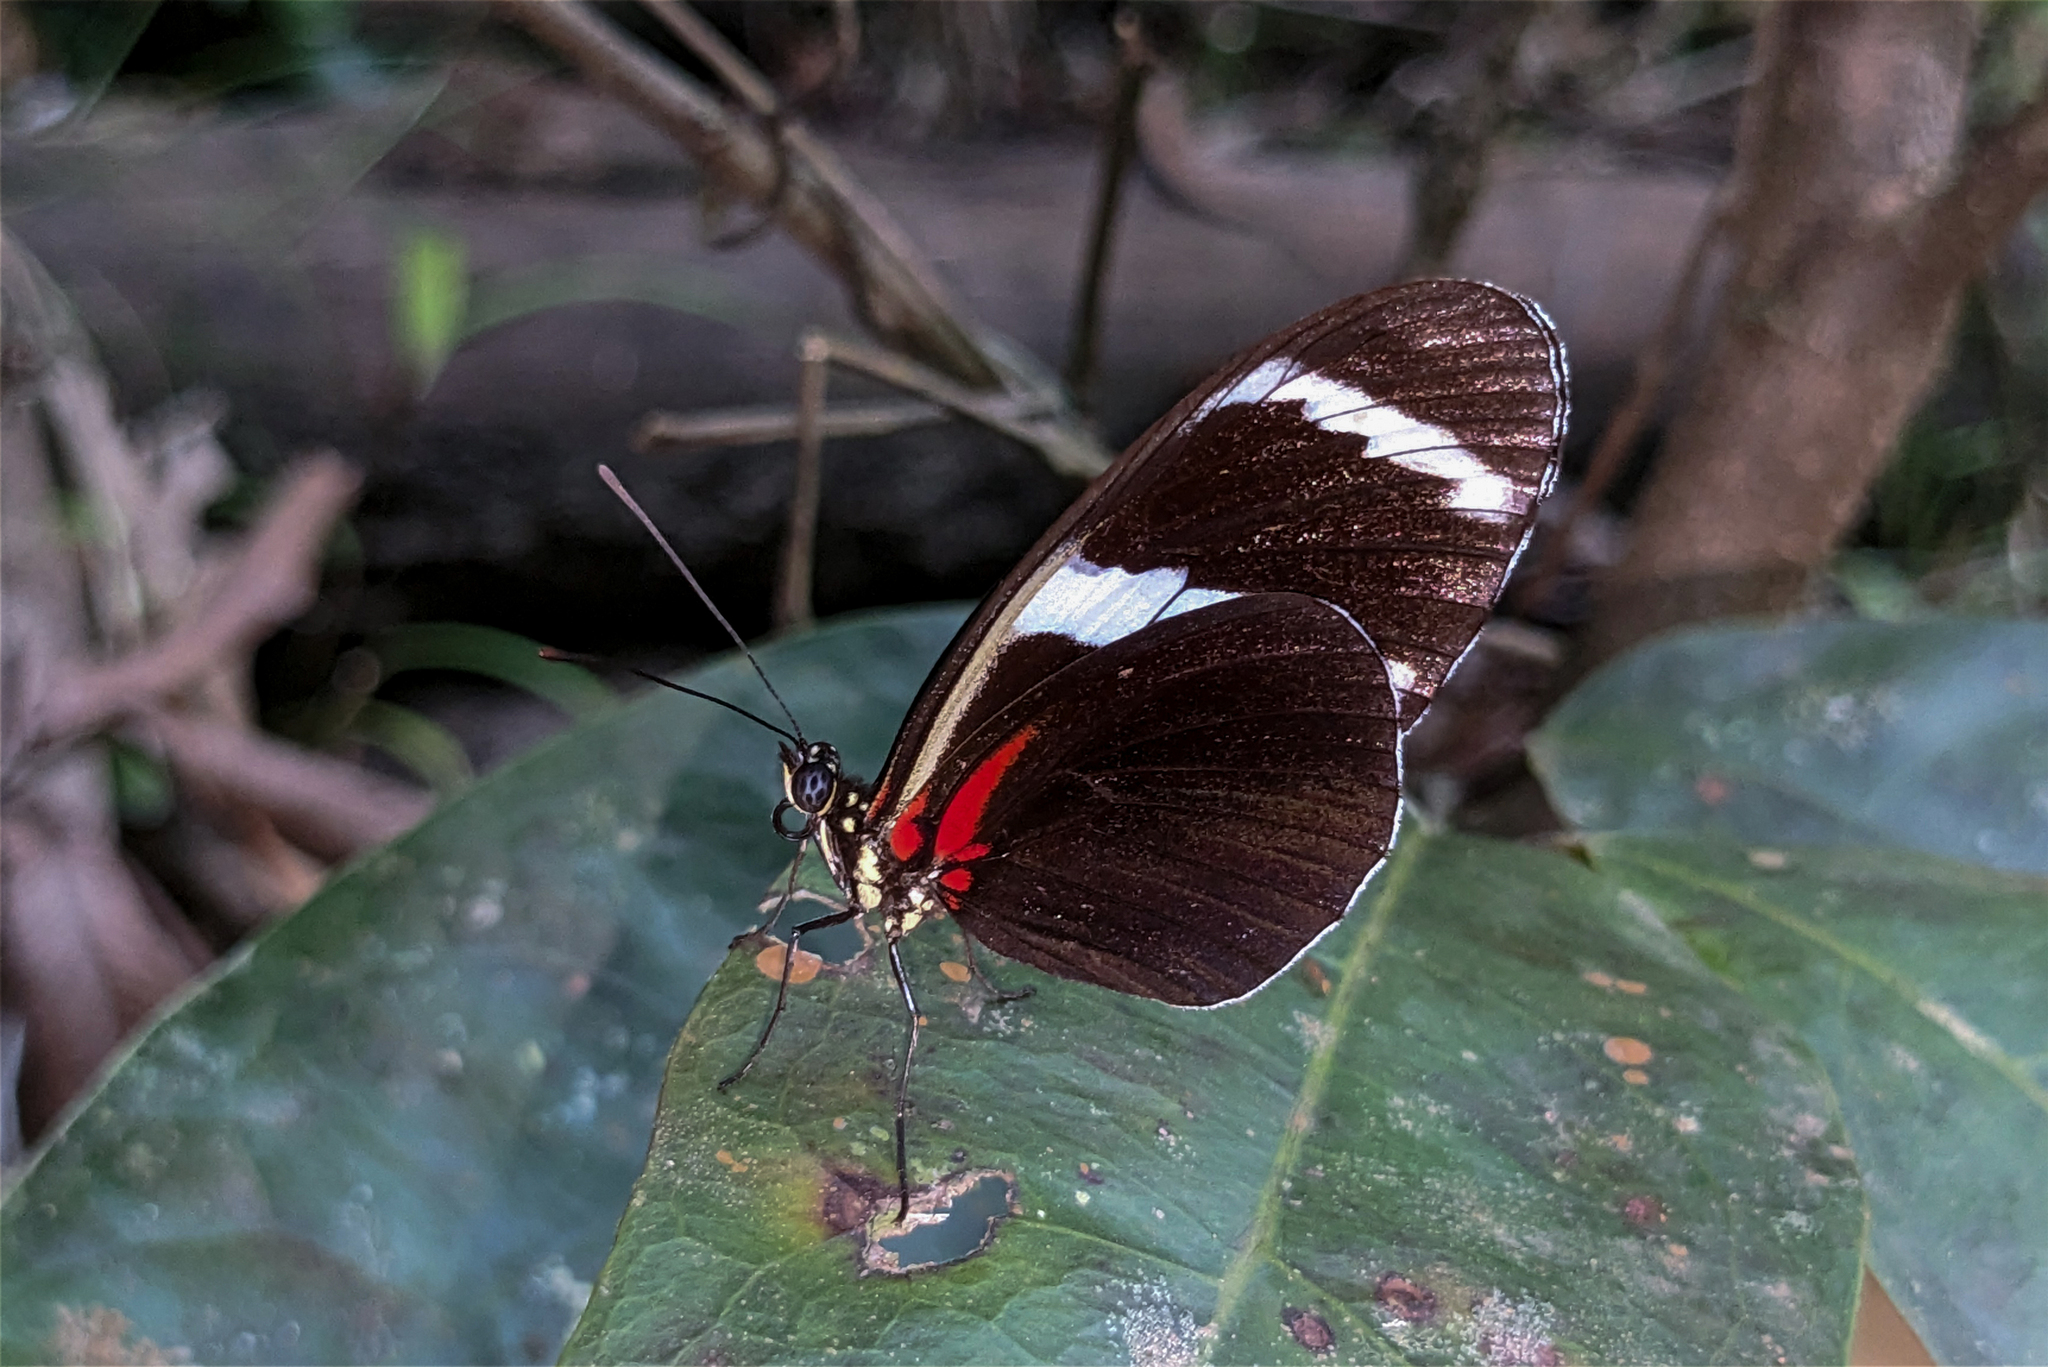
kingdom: Animalia
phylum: Arthropoda
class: Insecta
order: Lepidoptera
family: Nymphalidae
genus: Heliconius
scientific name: Heliconius antiochus
